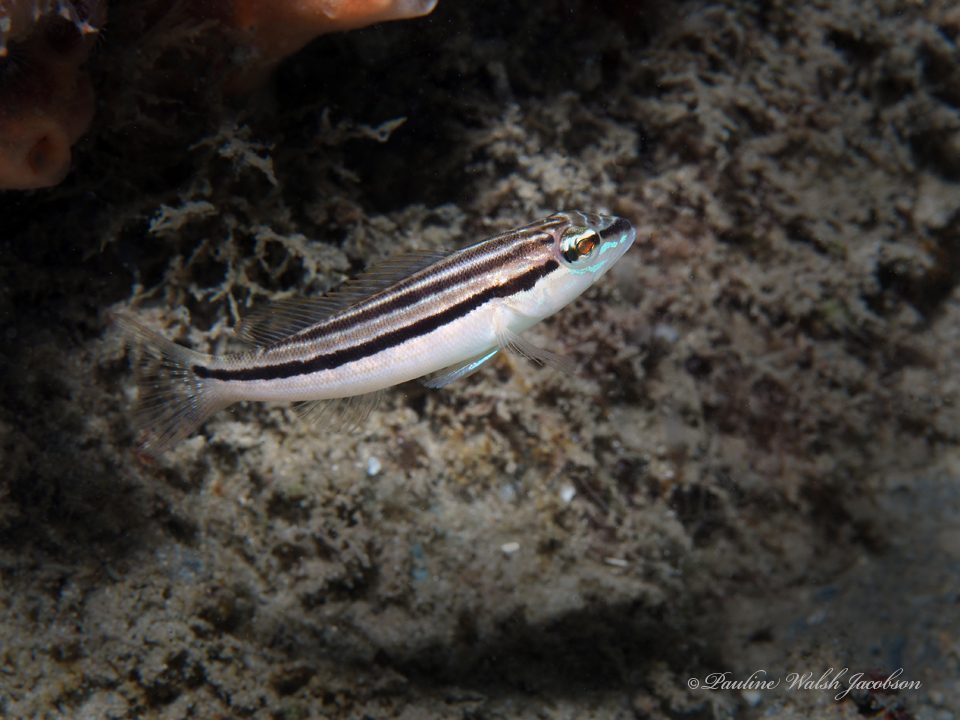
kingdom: Animalia
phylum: Chordata
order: Perciformes
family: Serranidae
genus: Diplectrum
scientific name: Diplectrum formosum
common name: Sand perch
